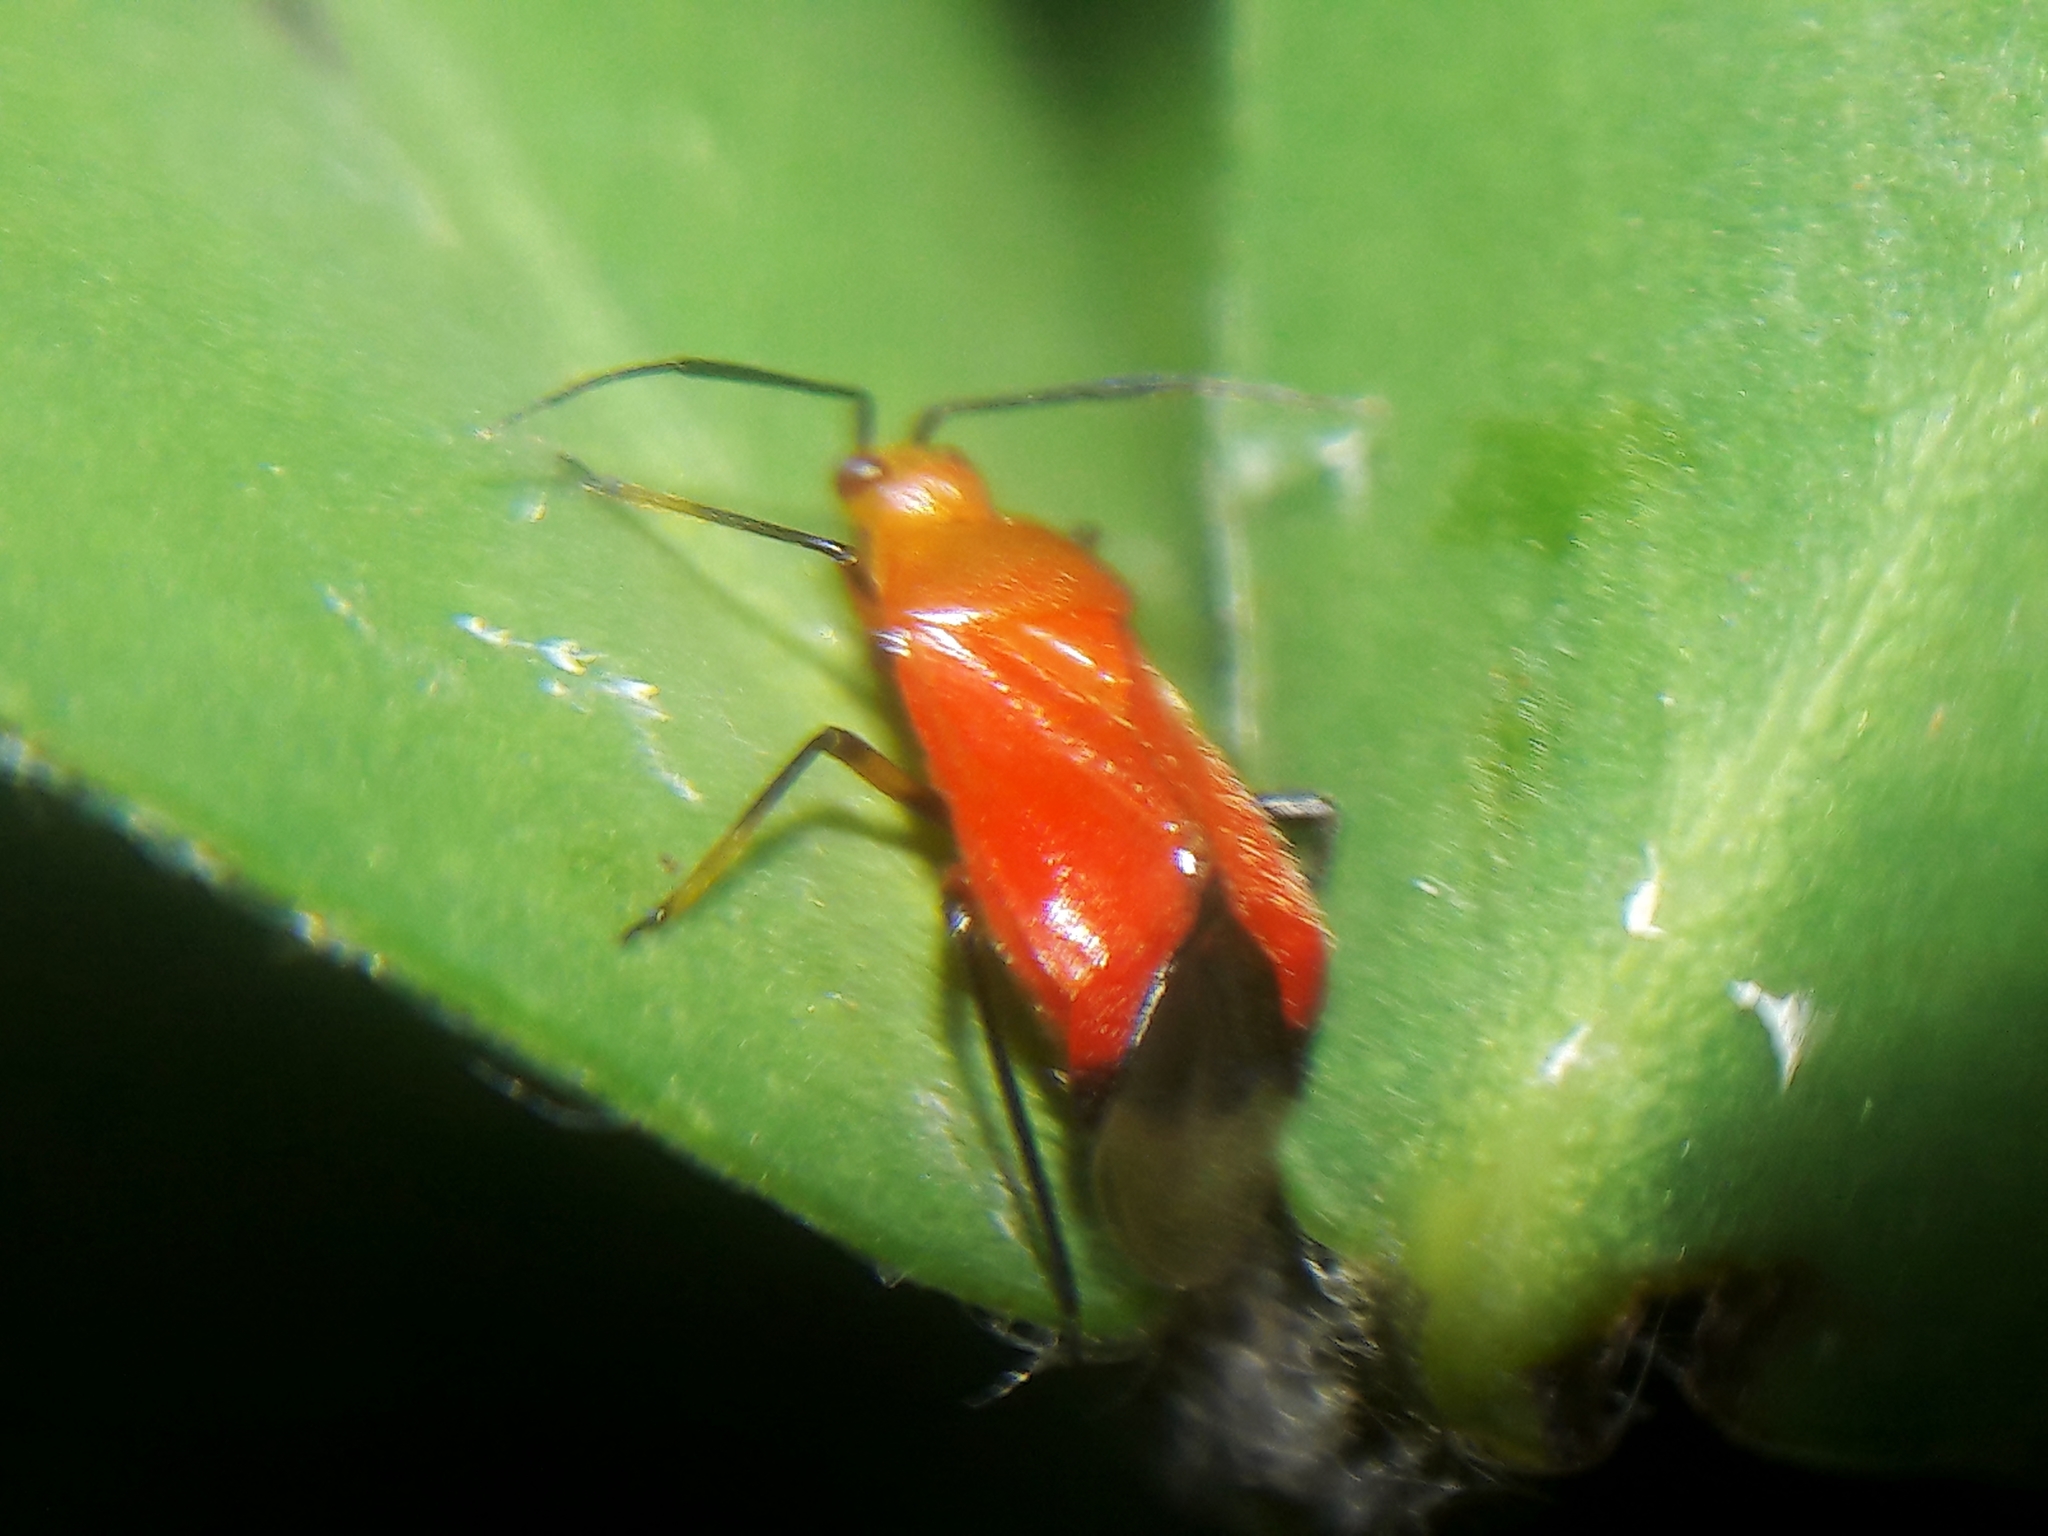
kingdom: Animalia
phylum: Arthropoda
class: Insecta
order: Hemiptera
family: Miridae
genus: Ambracius
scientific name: Ambracius dufouri
